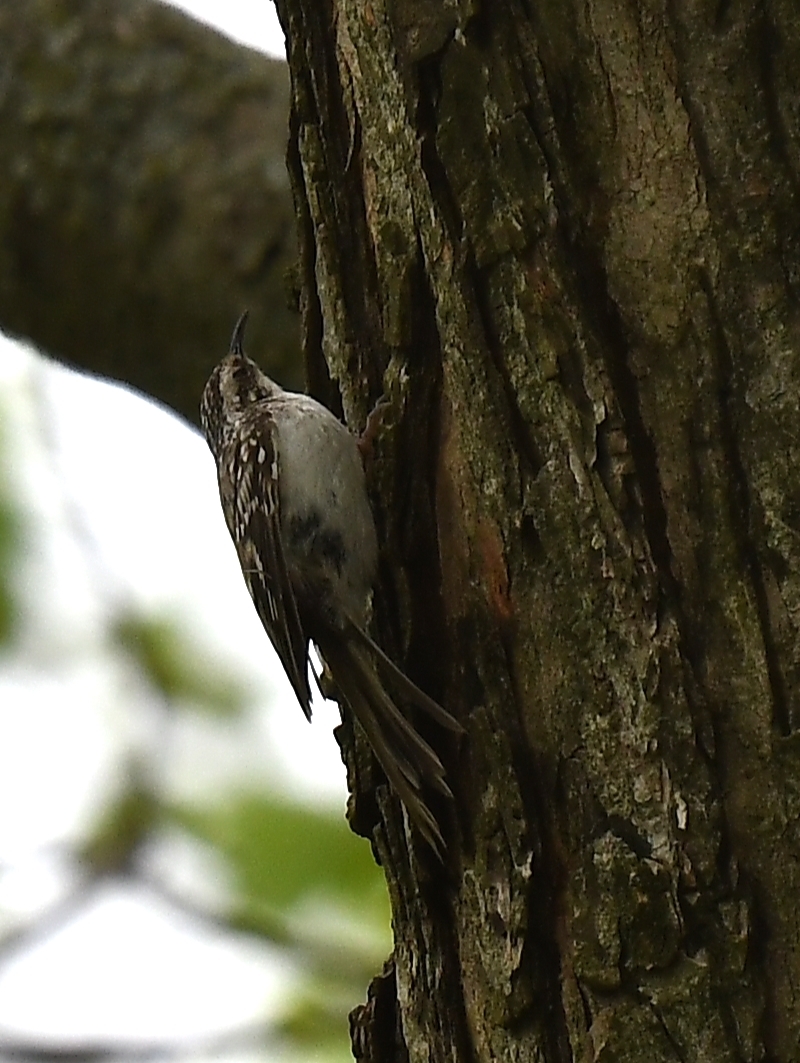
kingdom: Animalia
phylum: Chordata
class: Aves
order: Passeriformes
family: Certhiidae
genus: Certhia
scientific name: Certhia americana
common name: Brown creeper
